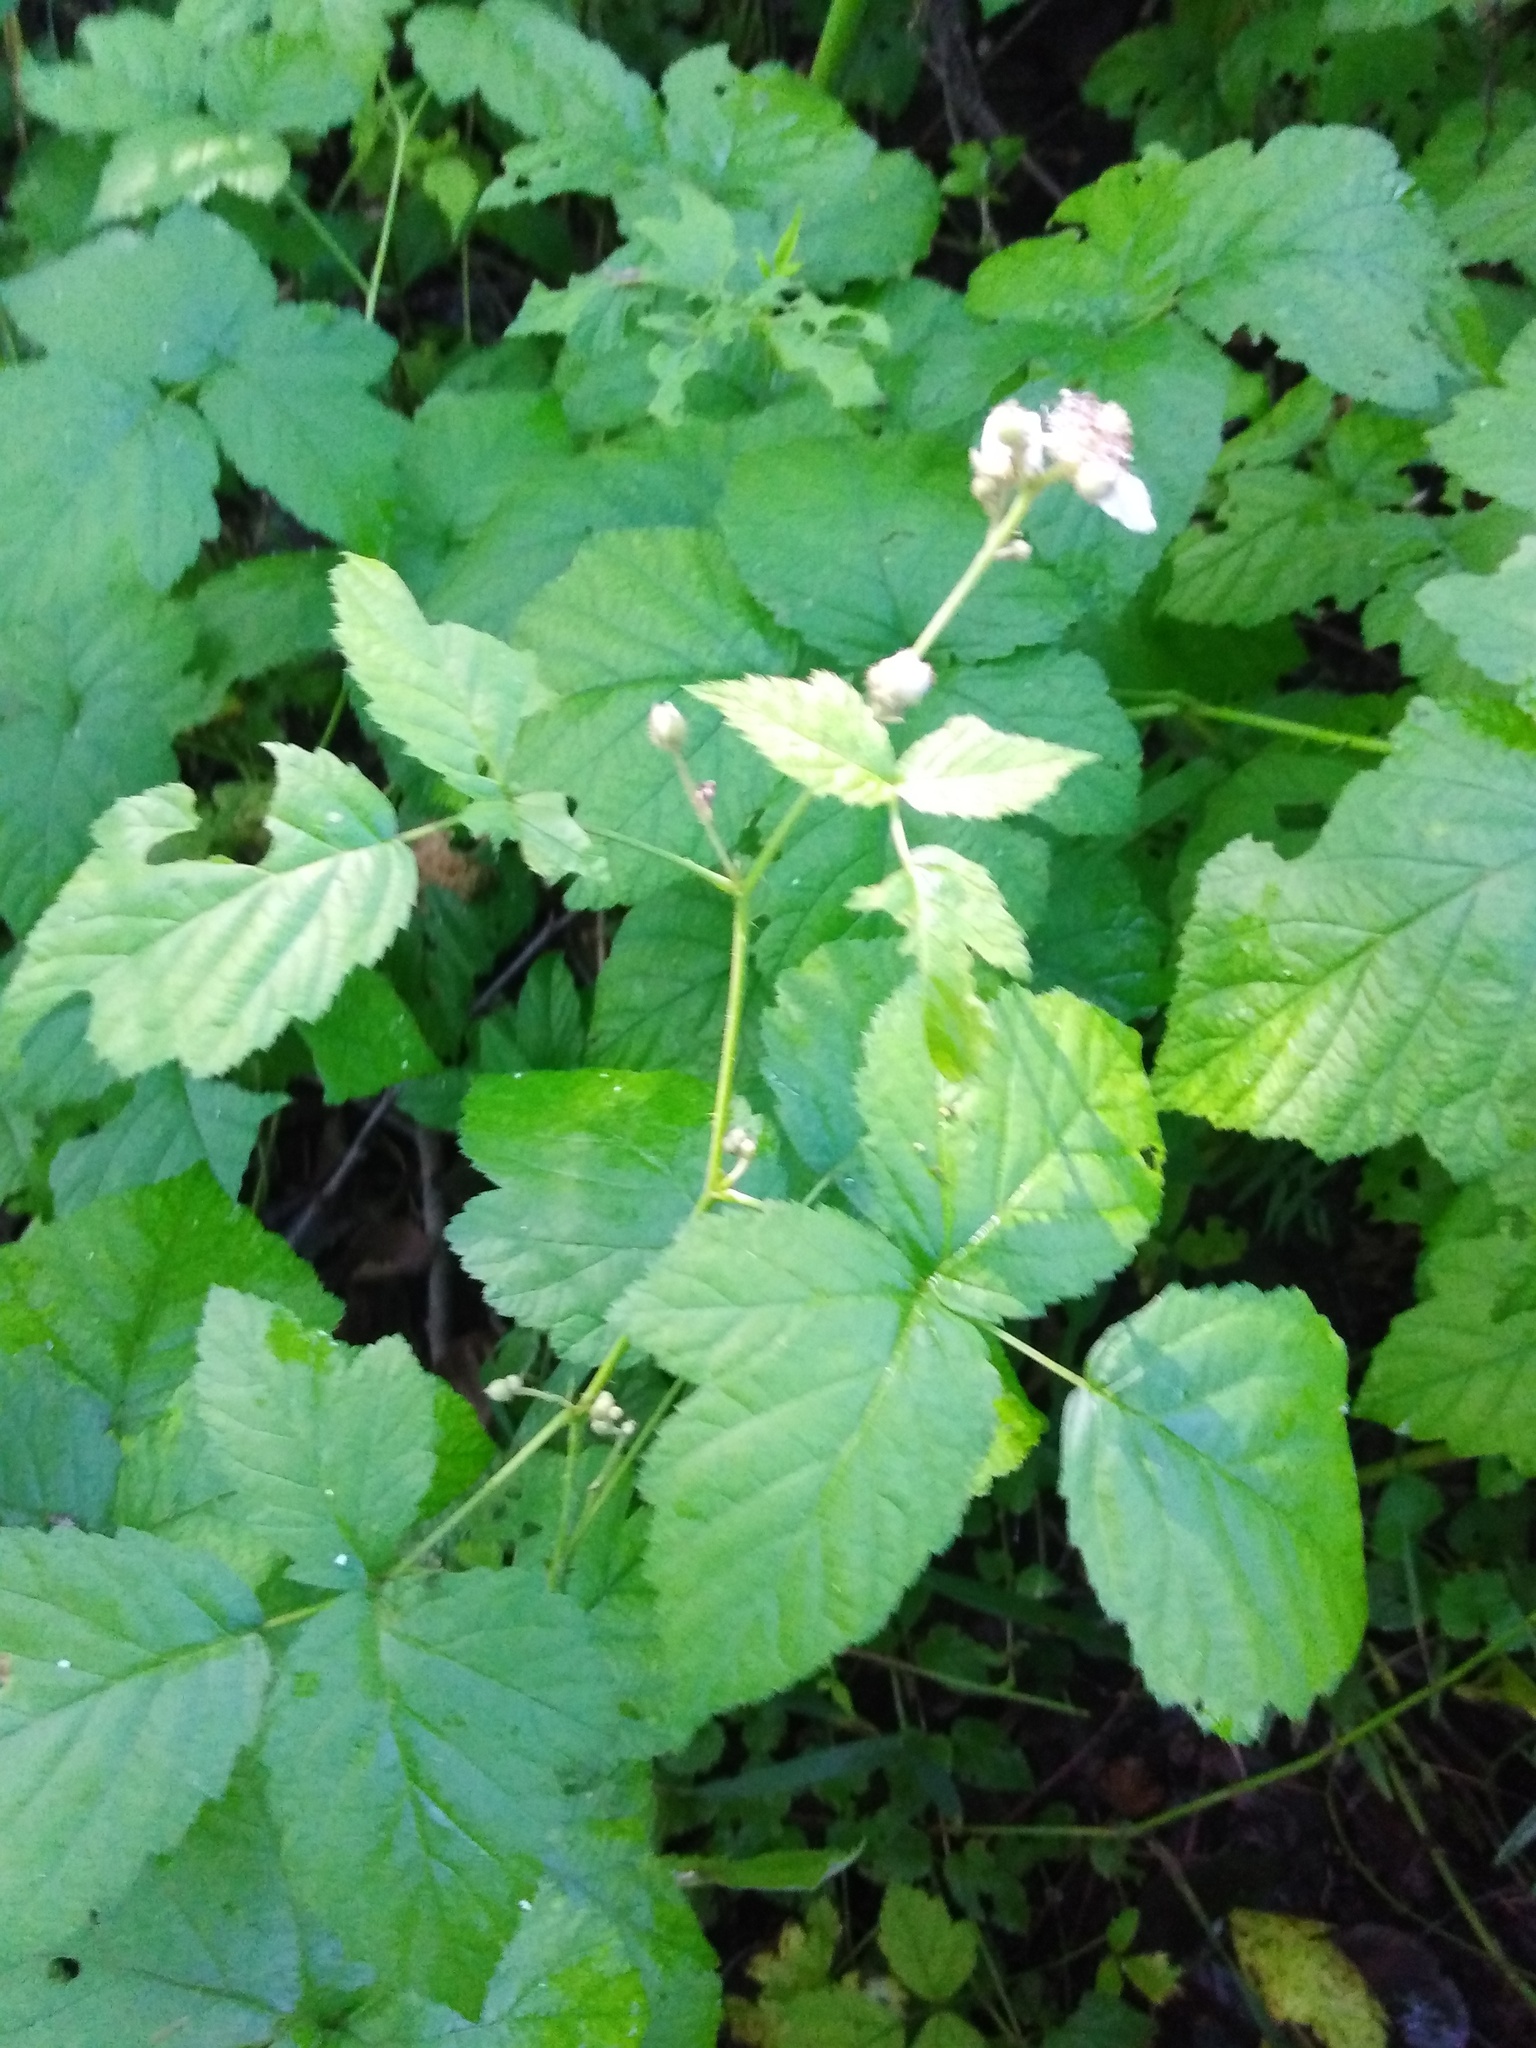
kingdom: Plantae
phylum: Tracheophyta
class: Magnoliopsida
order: Rosales
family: Rosaceae
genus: Rubus
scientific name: Rubus caesius
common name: Dewberry
